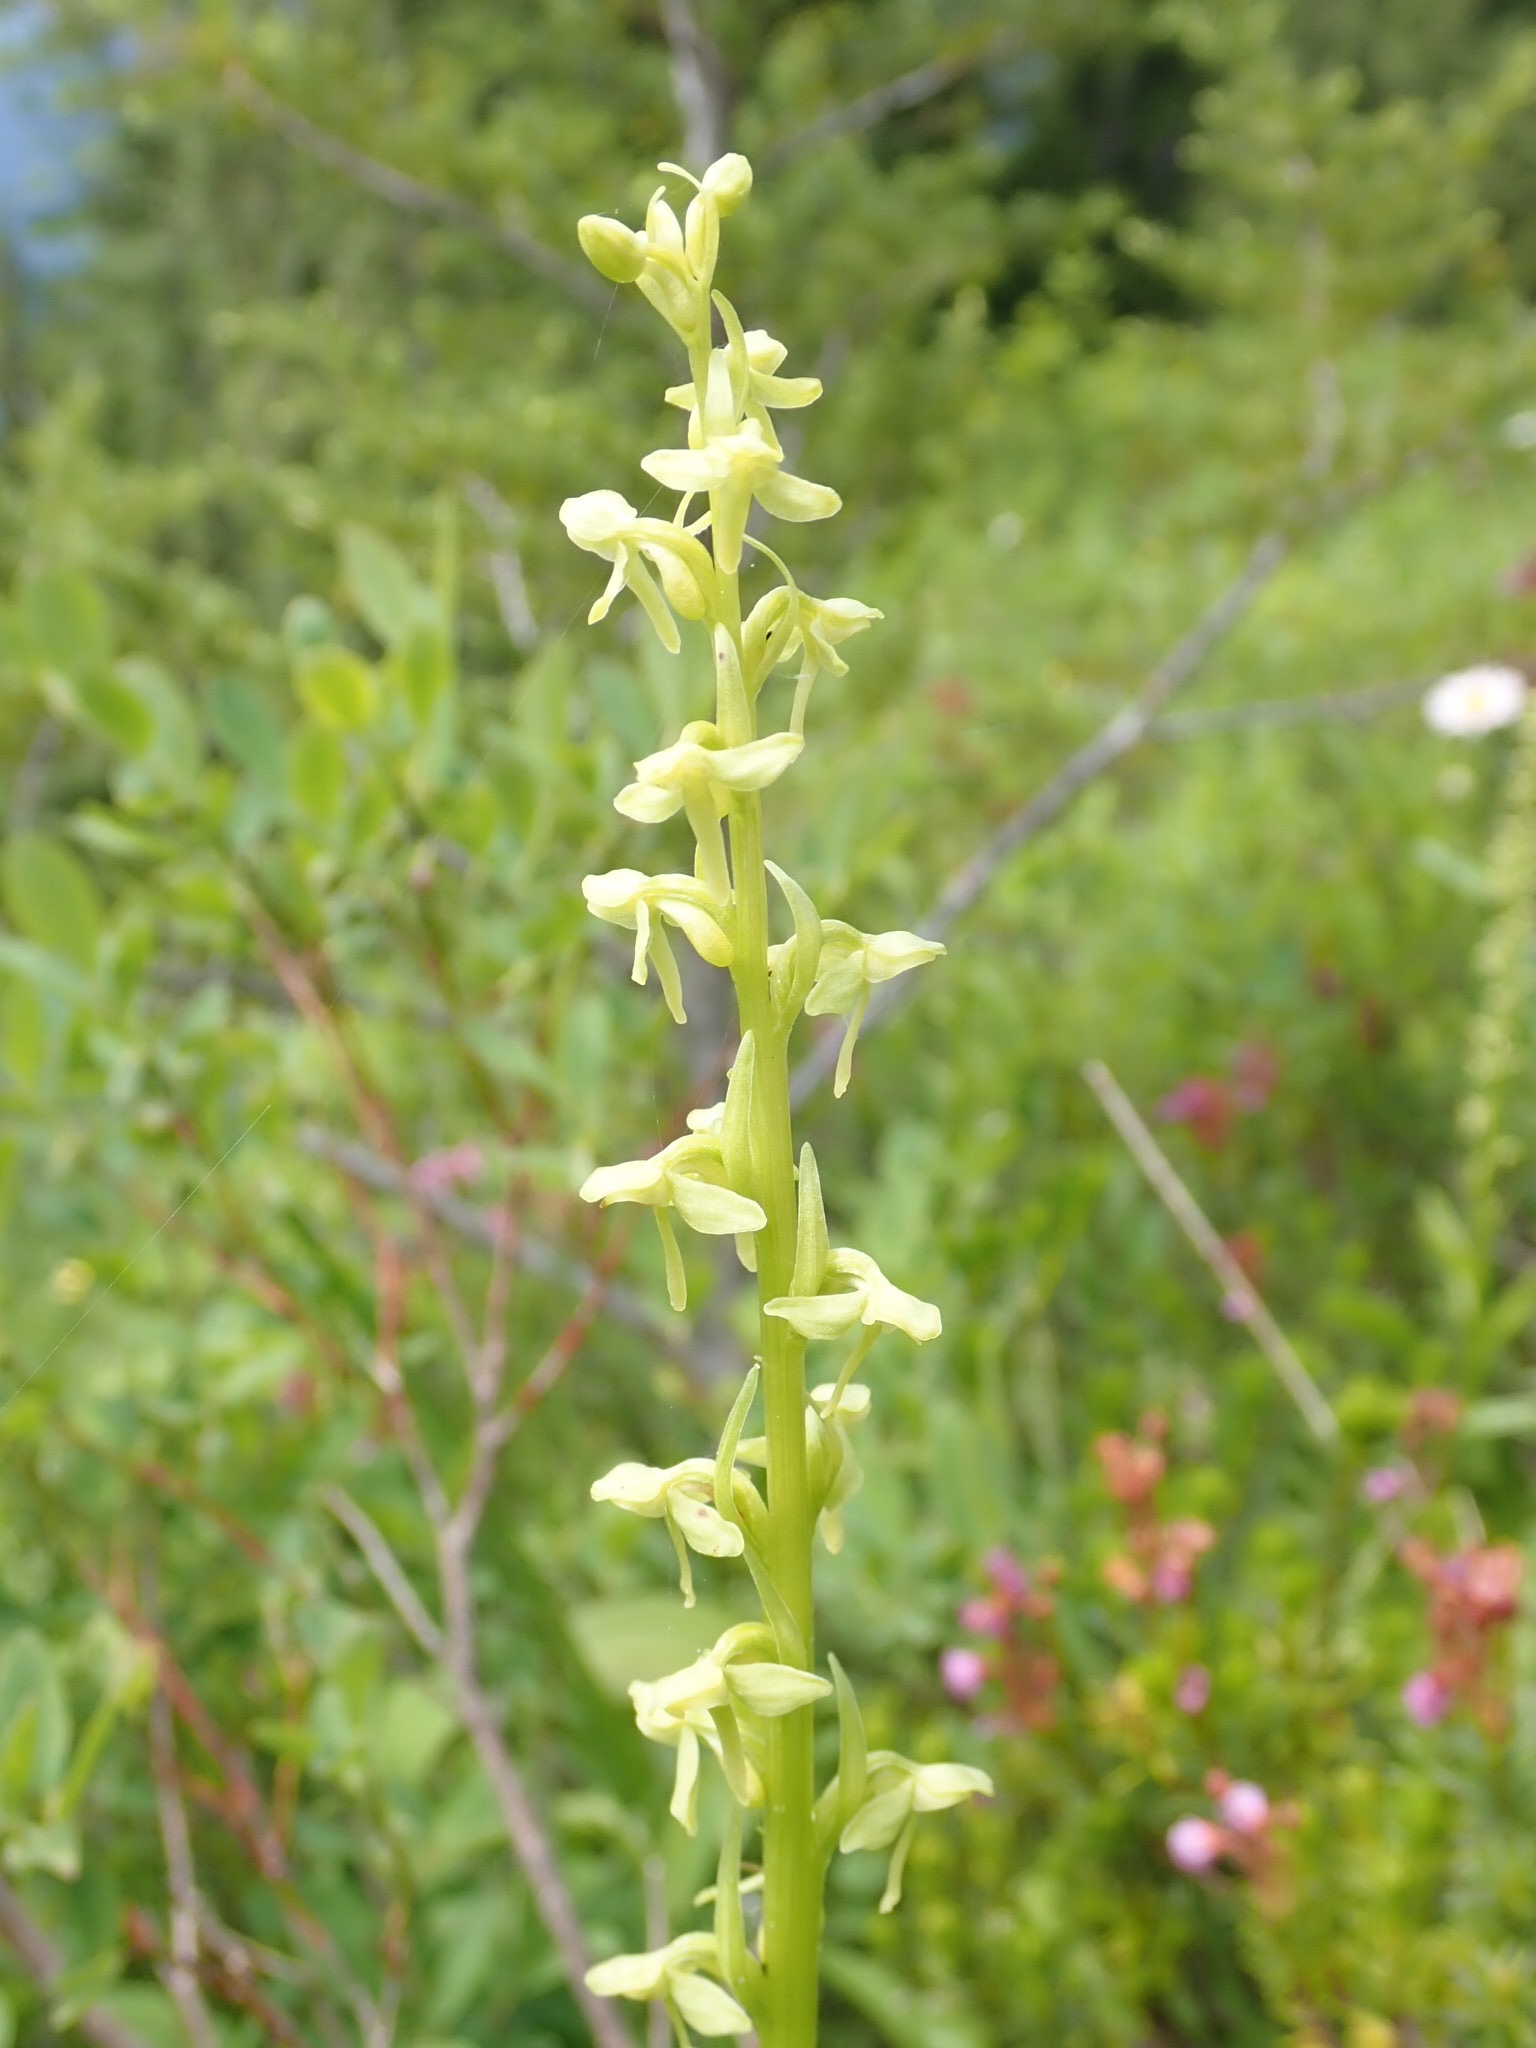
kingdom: Plantae
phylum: Tracheophyta
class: Liliopsida
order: Asparagales
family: Orchidaceae
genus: Platanthera
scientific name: Platanthera stricta
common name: Slender bog orchid
